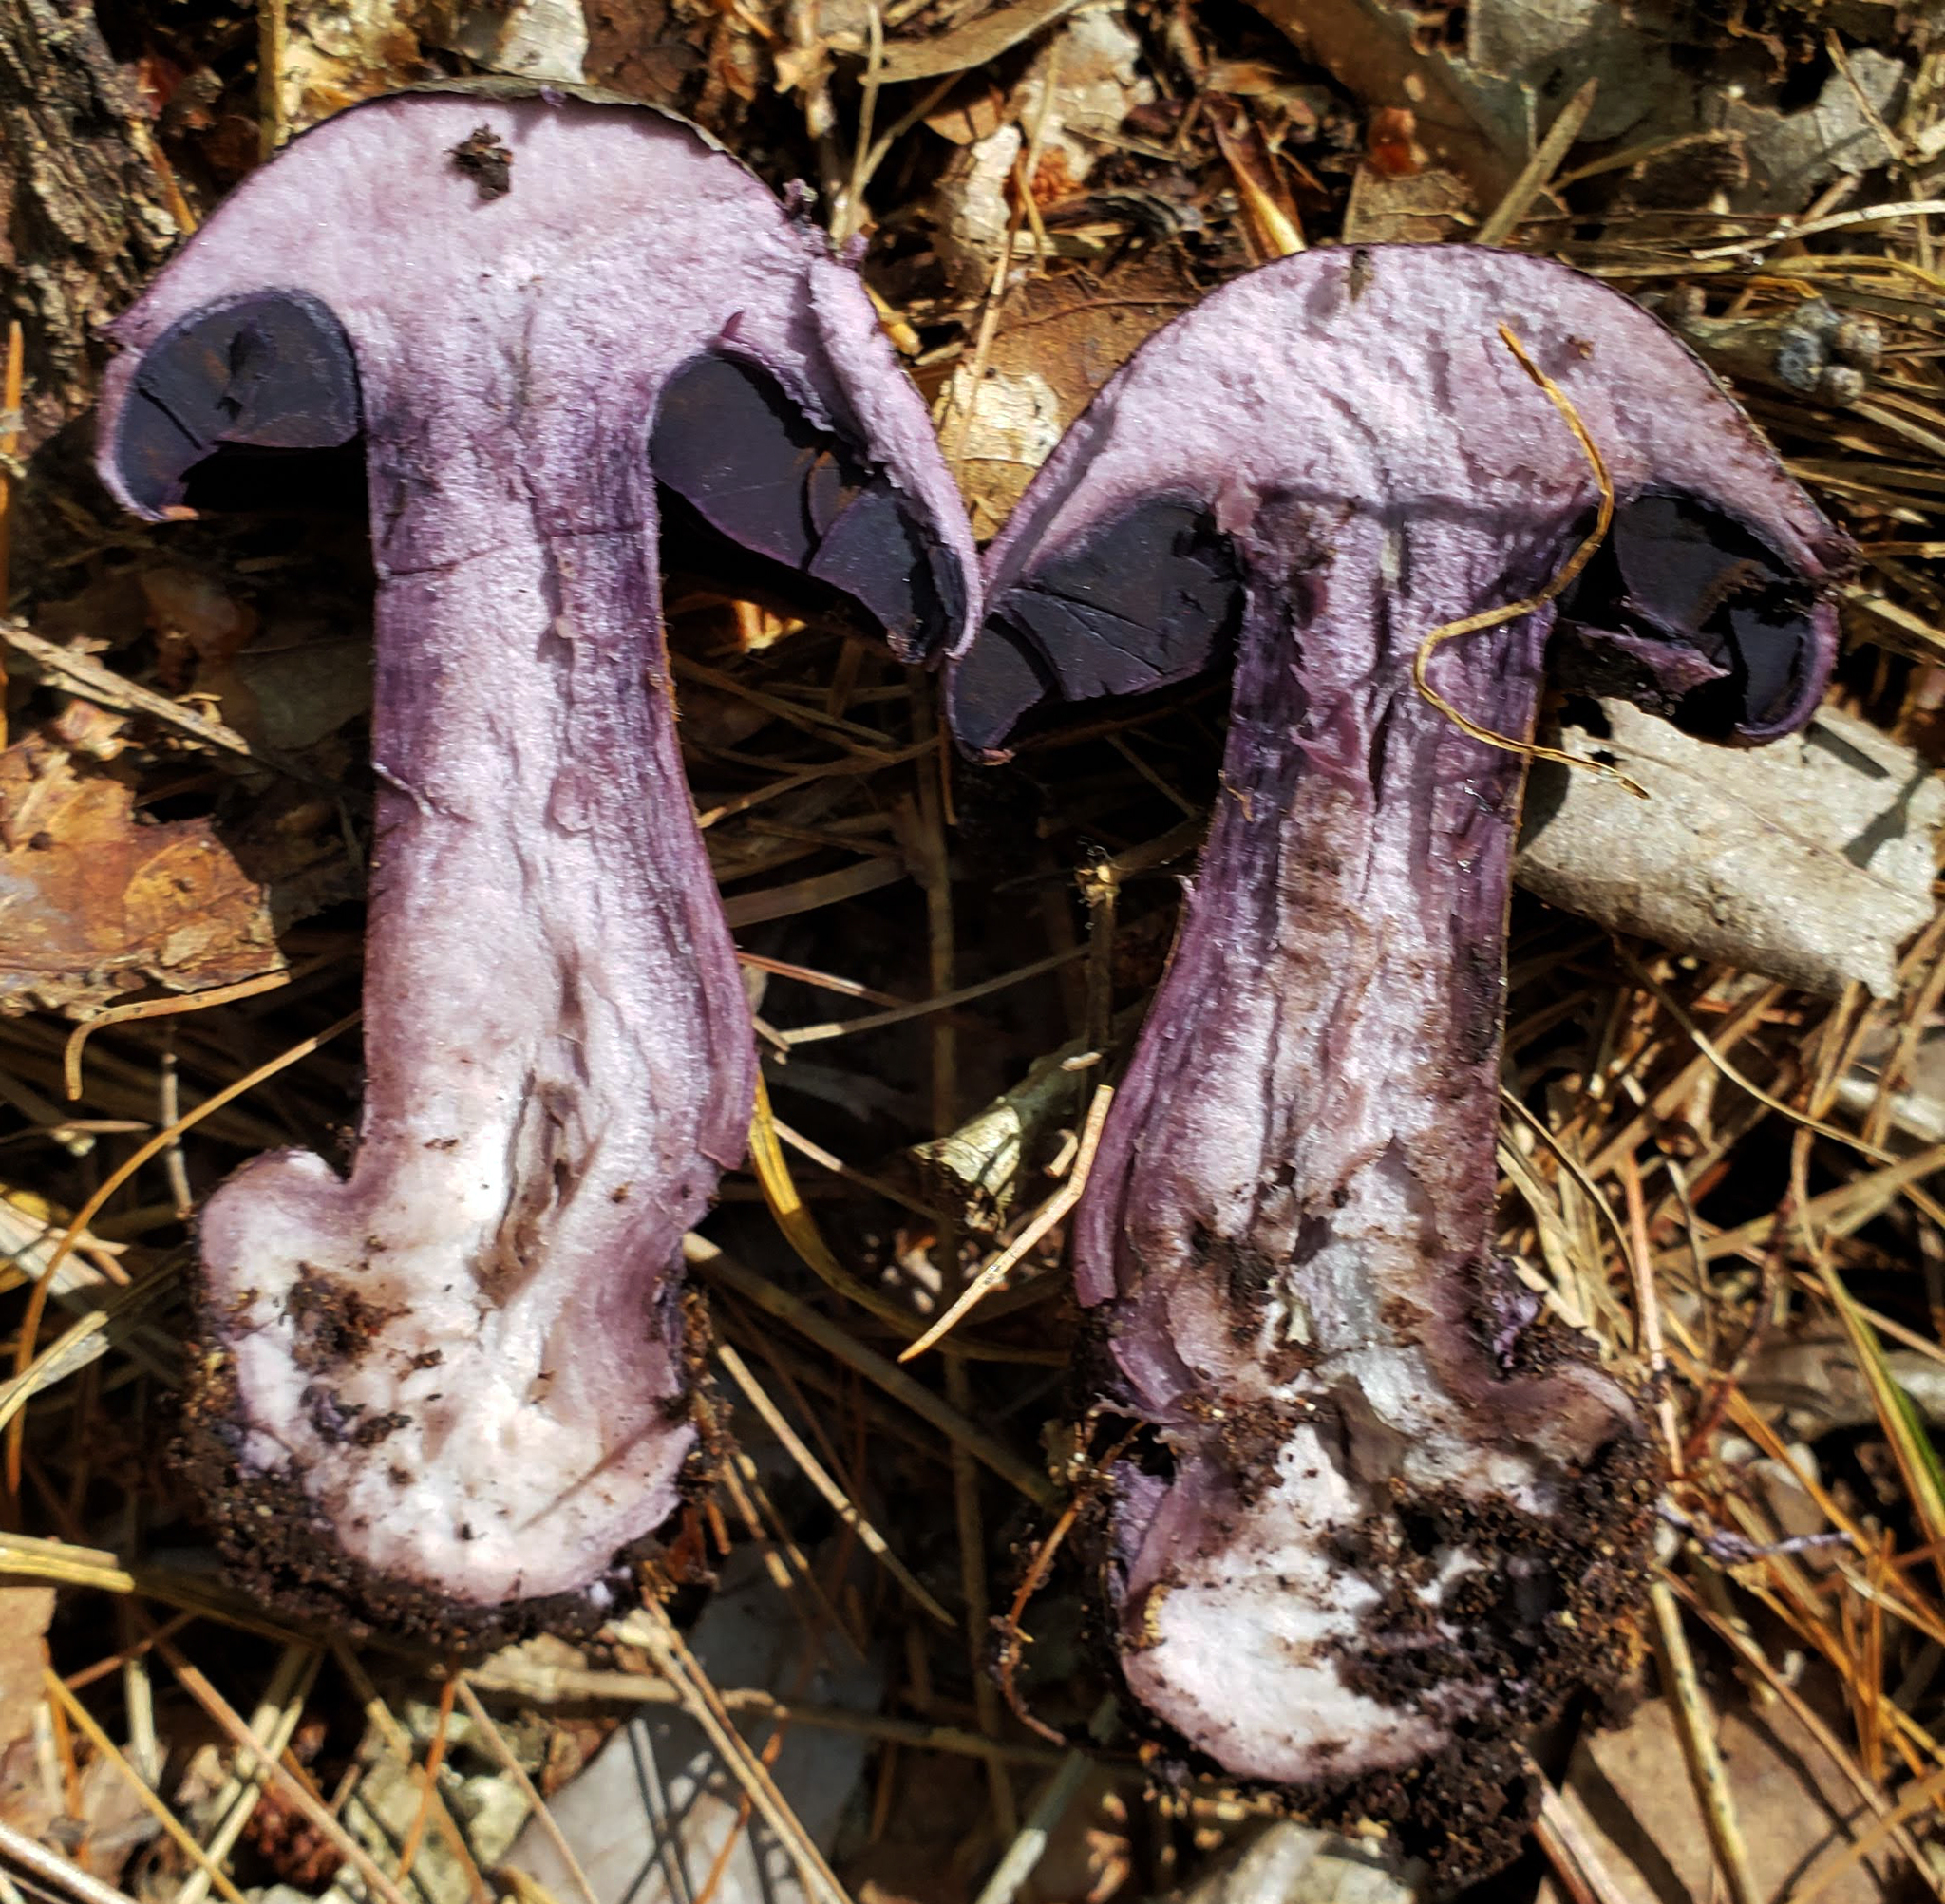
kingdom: Fungi
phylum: Basidiomycota
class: Agaricomycetes
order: Agaricales
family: Cortinariaceae
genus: Cortinarius
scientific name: Cortinarius violaceus
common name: Violet webcap
